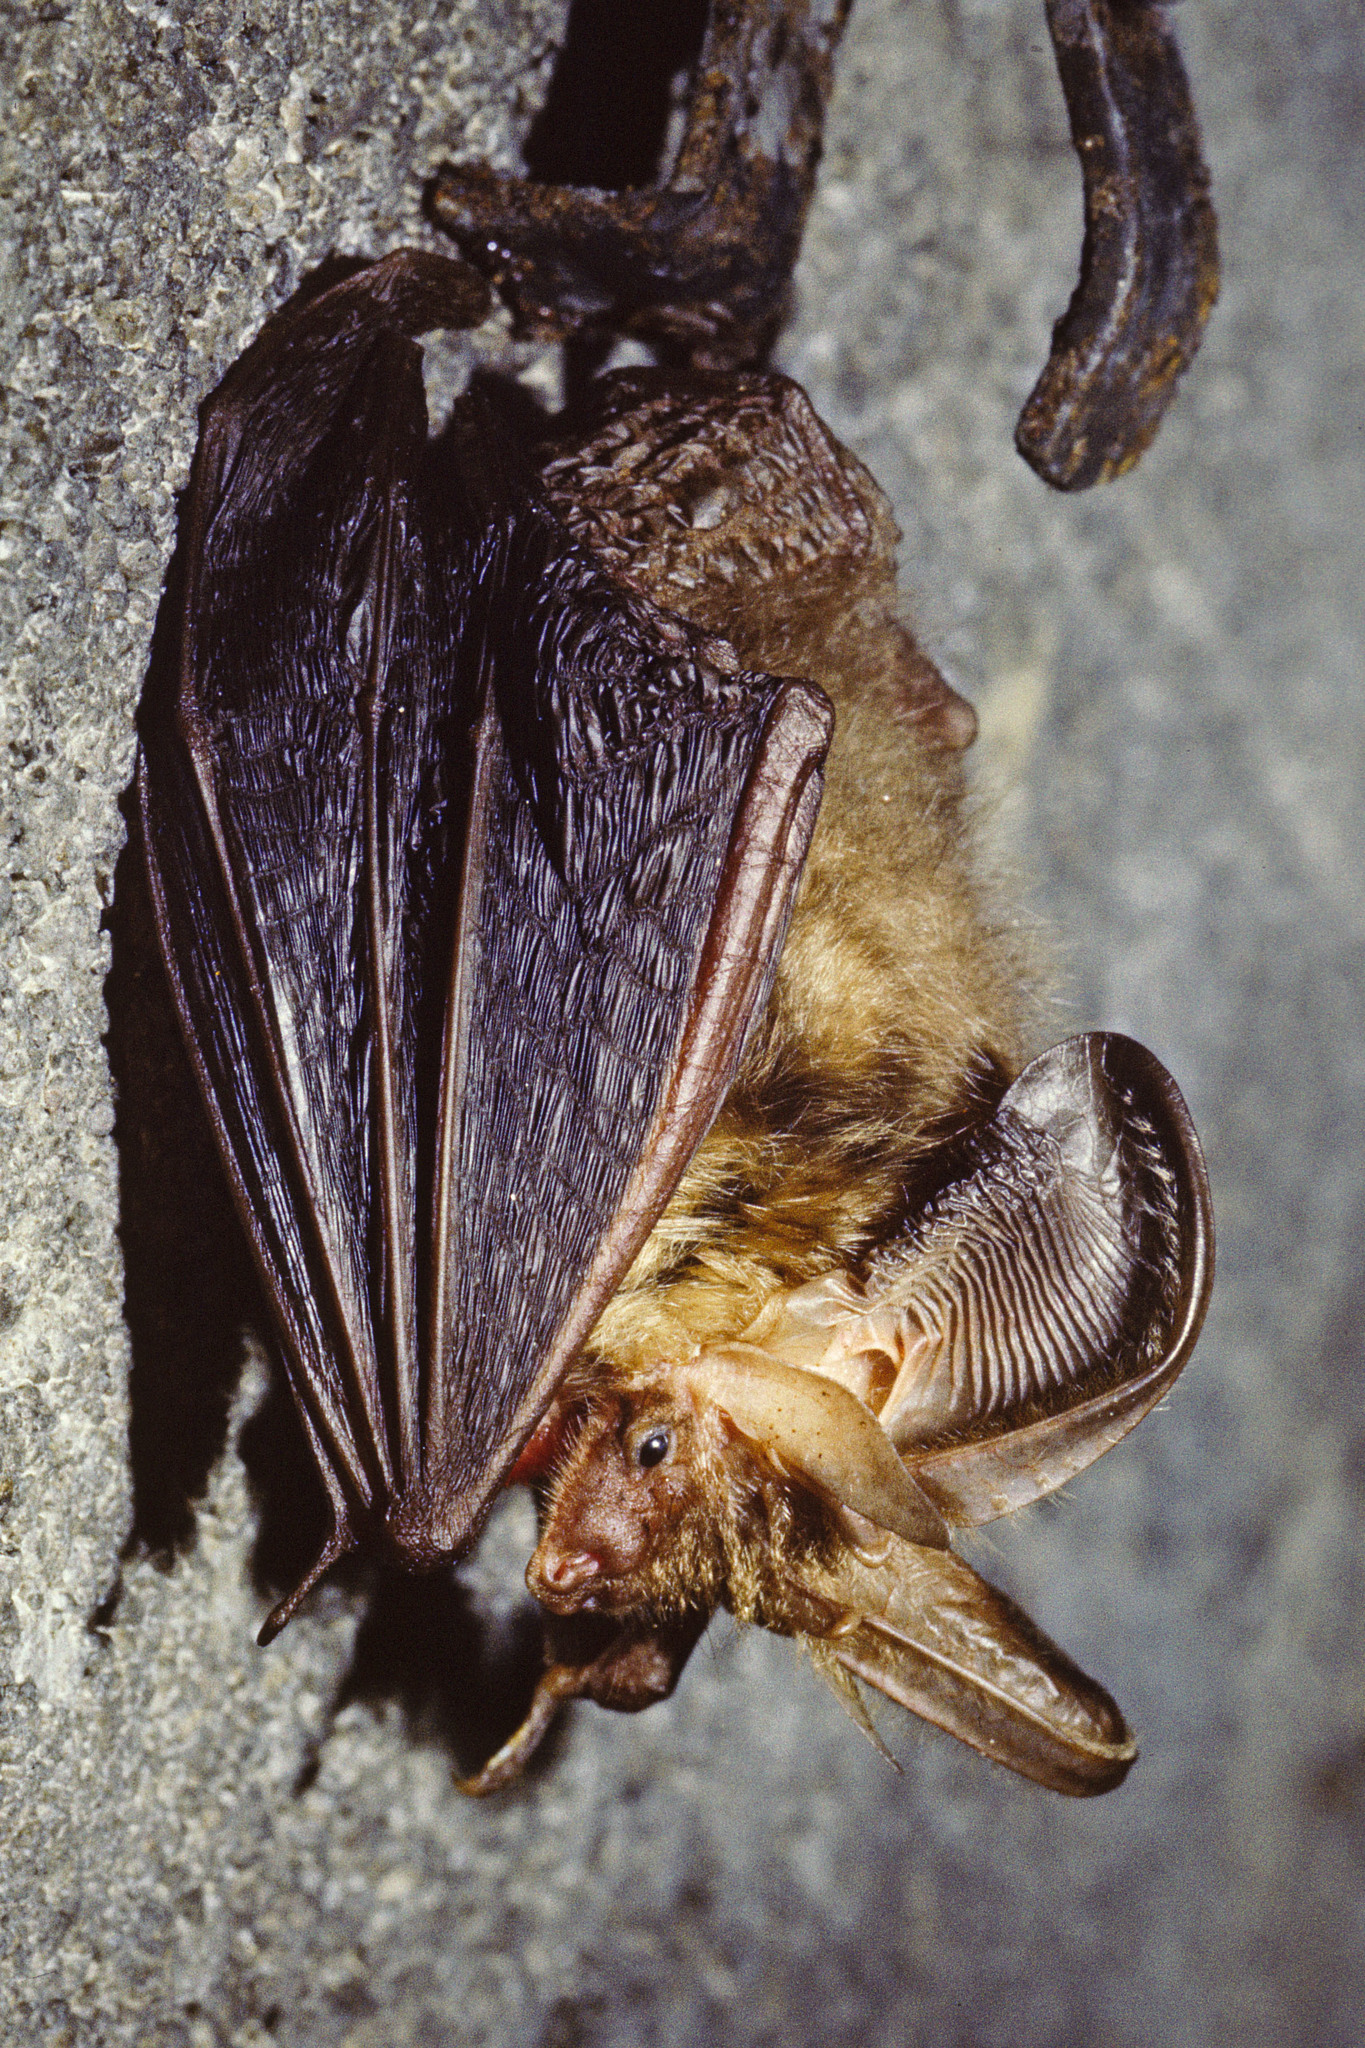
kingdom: Animalia
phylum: Chordata
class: Mammalia
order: Chiroptera
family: Vespertilionidae
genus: Plecotus
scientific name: Plecotus auritus
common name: Brown long-eared bat
